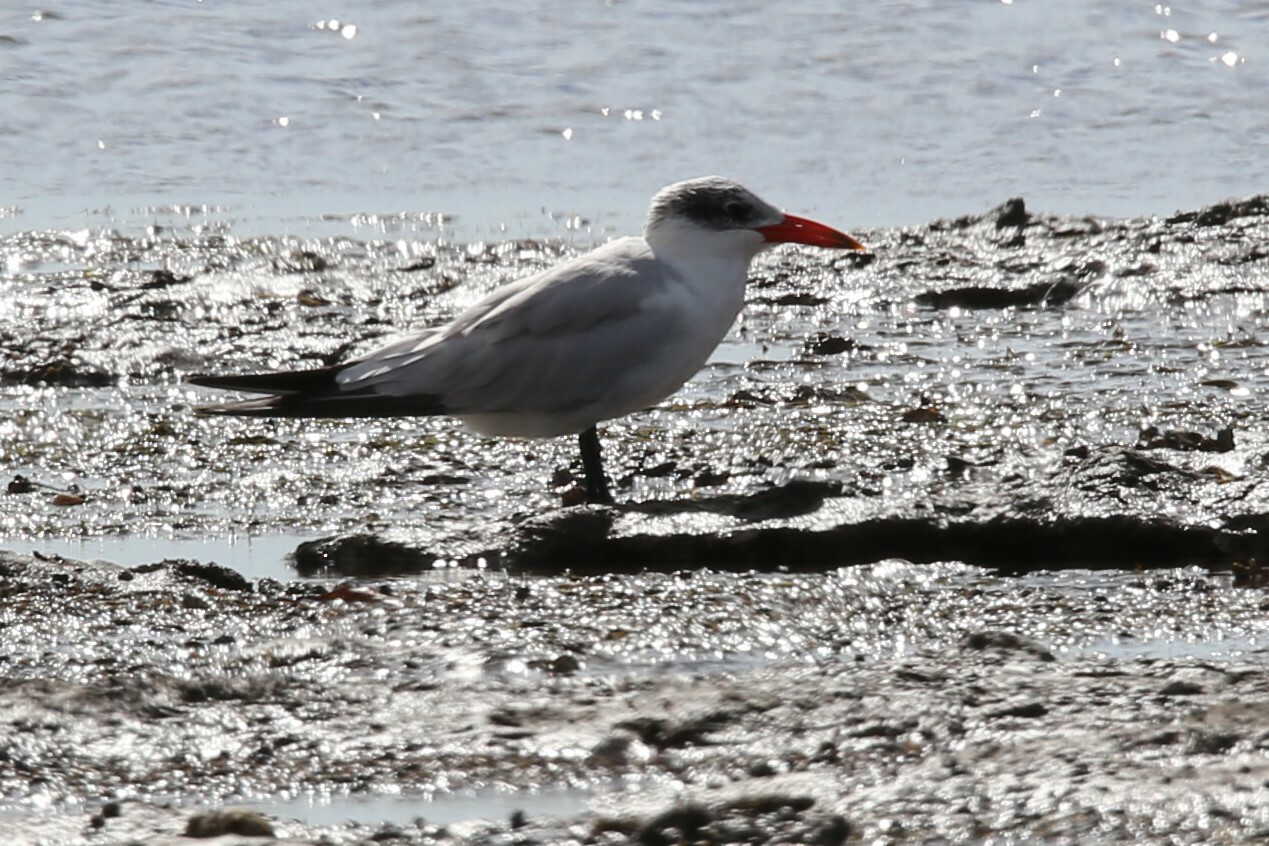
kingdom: Animalia
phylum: Chordata
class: Aves
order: Charadriiformes
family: Laridae
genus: Hydroprogne
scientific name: Hydroprogne caspia
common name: Caspian tern
